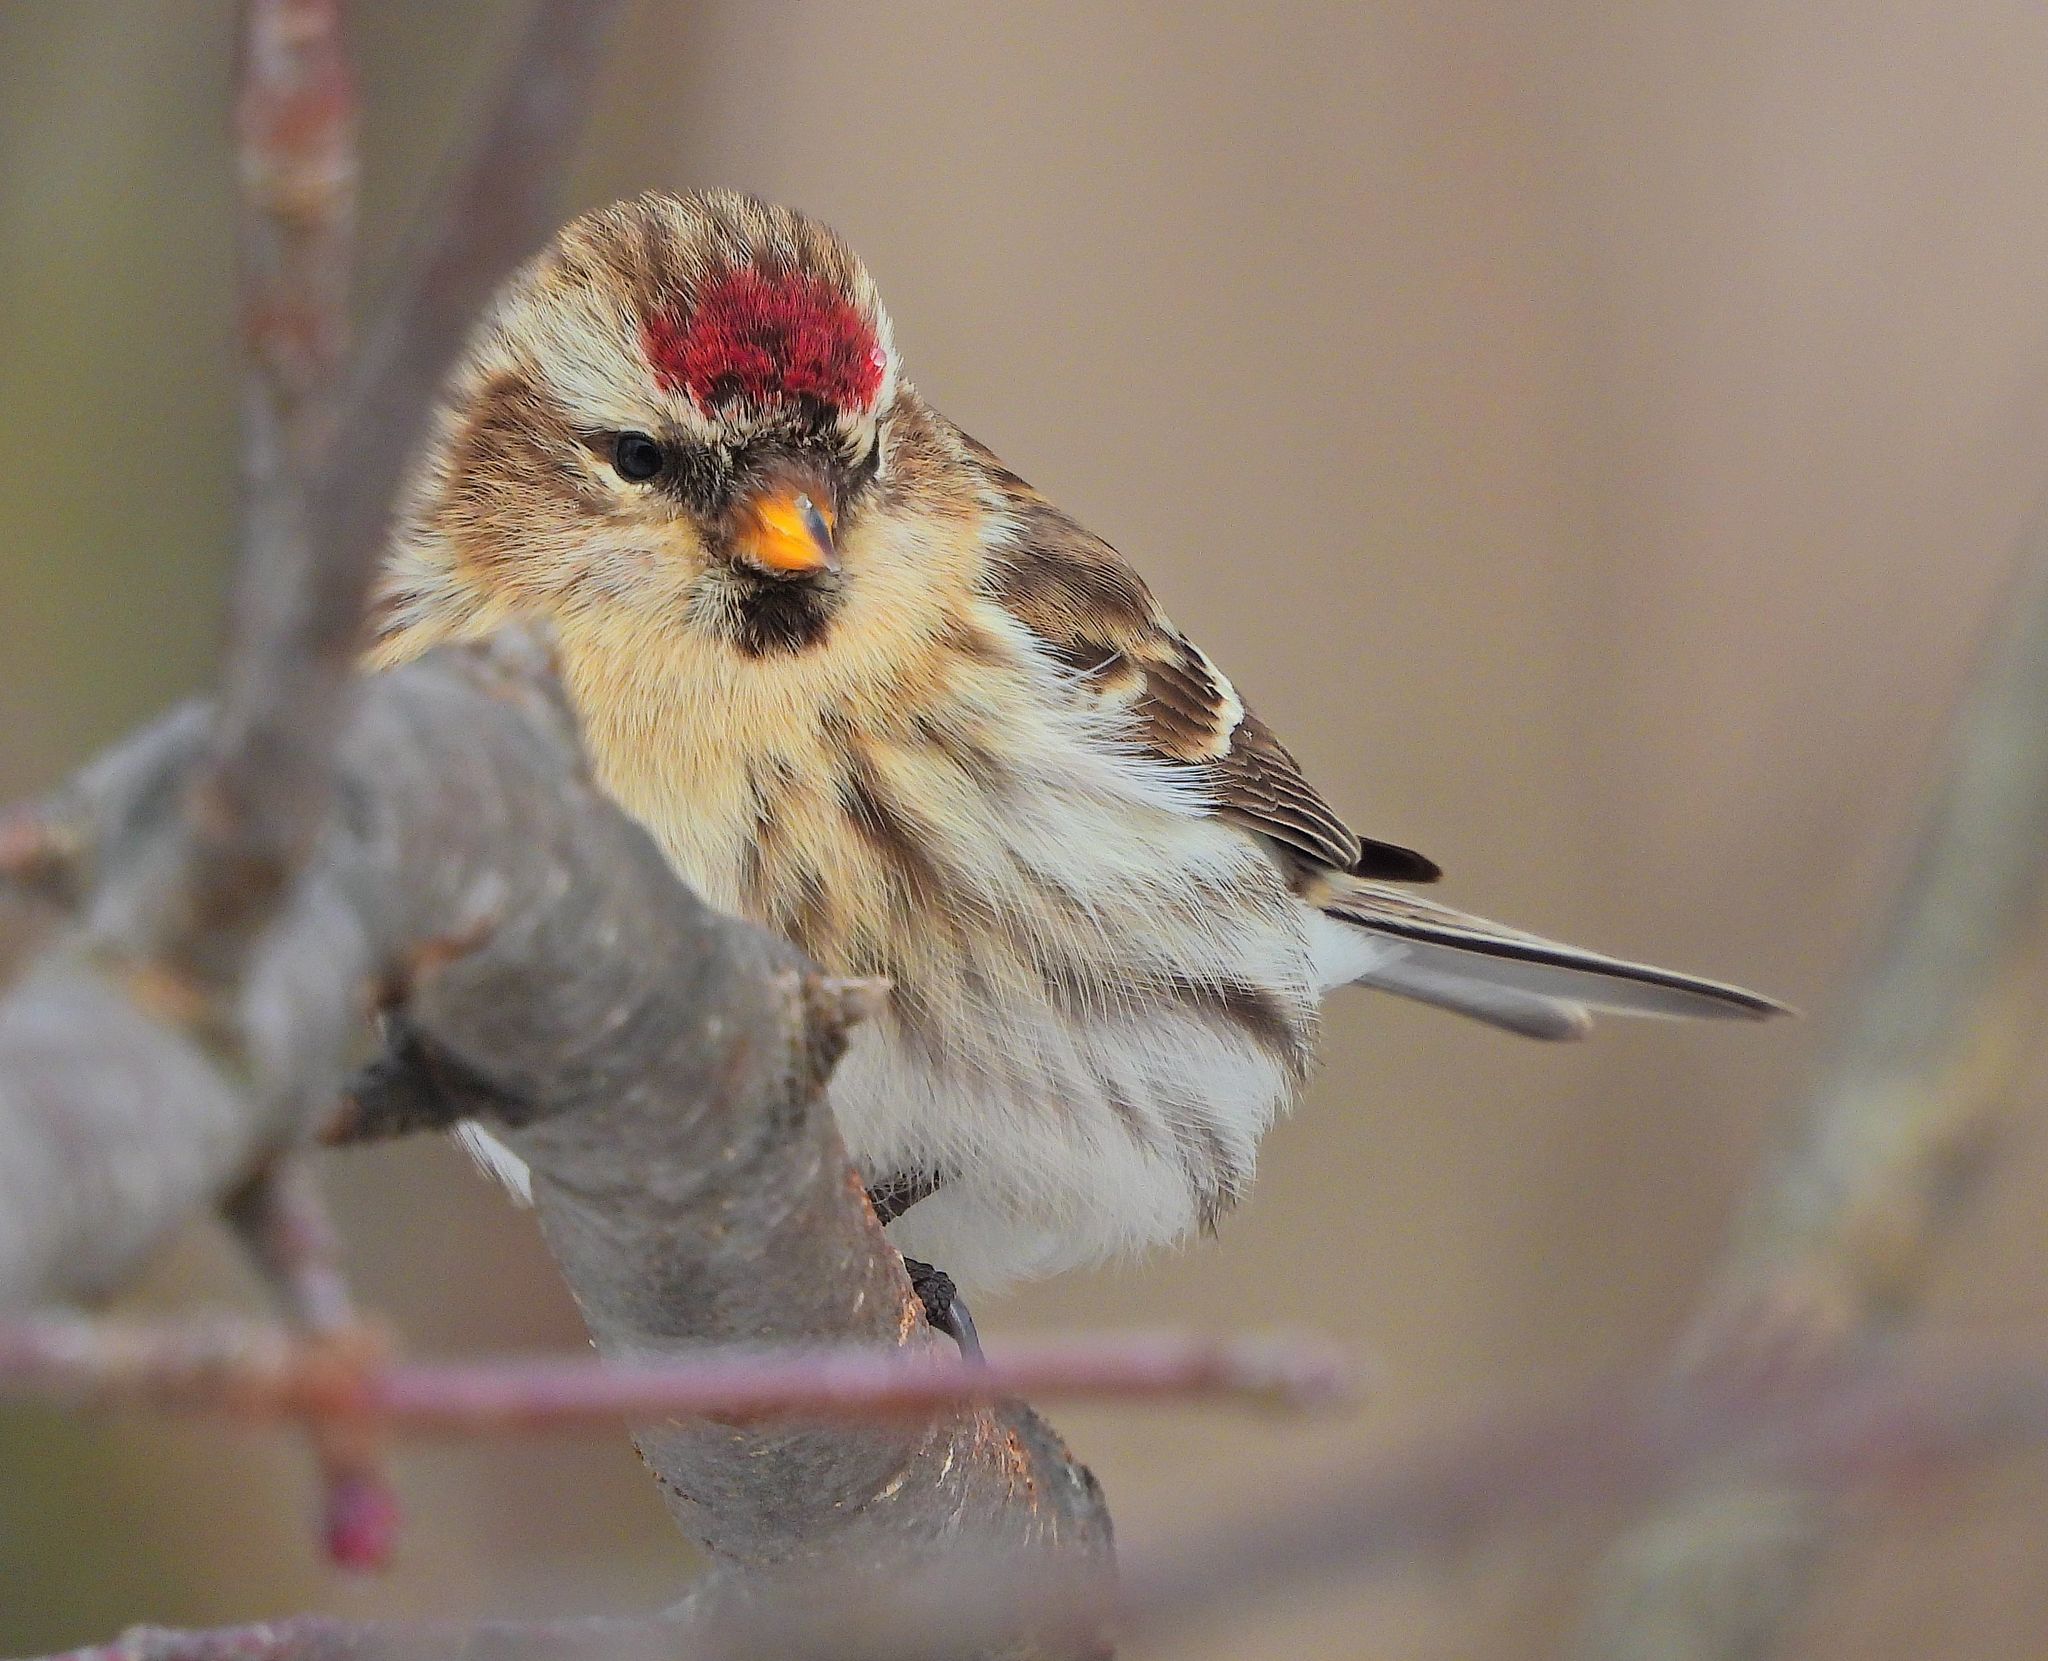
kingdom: Animalia
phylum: Chordata
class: Aves
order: Passeriformes
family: Fringillidae
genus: Acanthis
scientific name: Acanthis flammea
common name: Common redpoll
